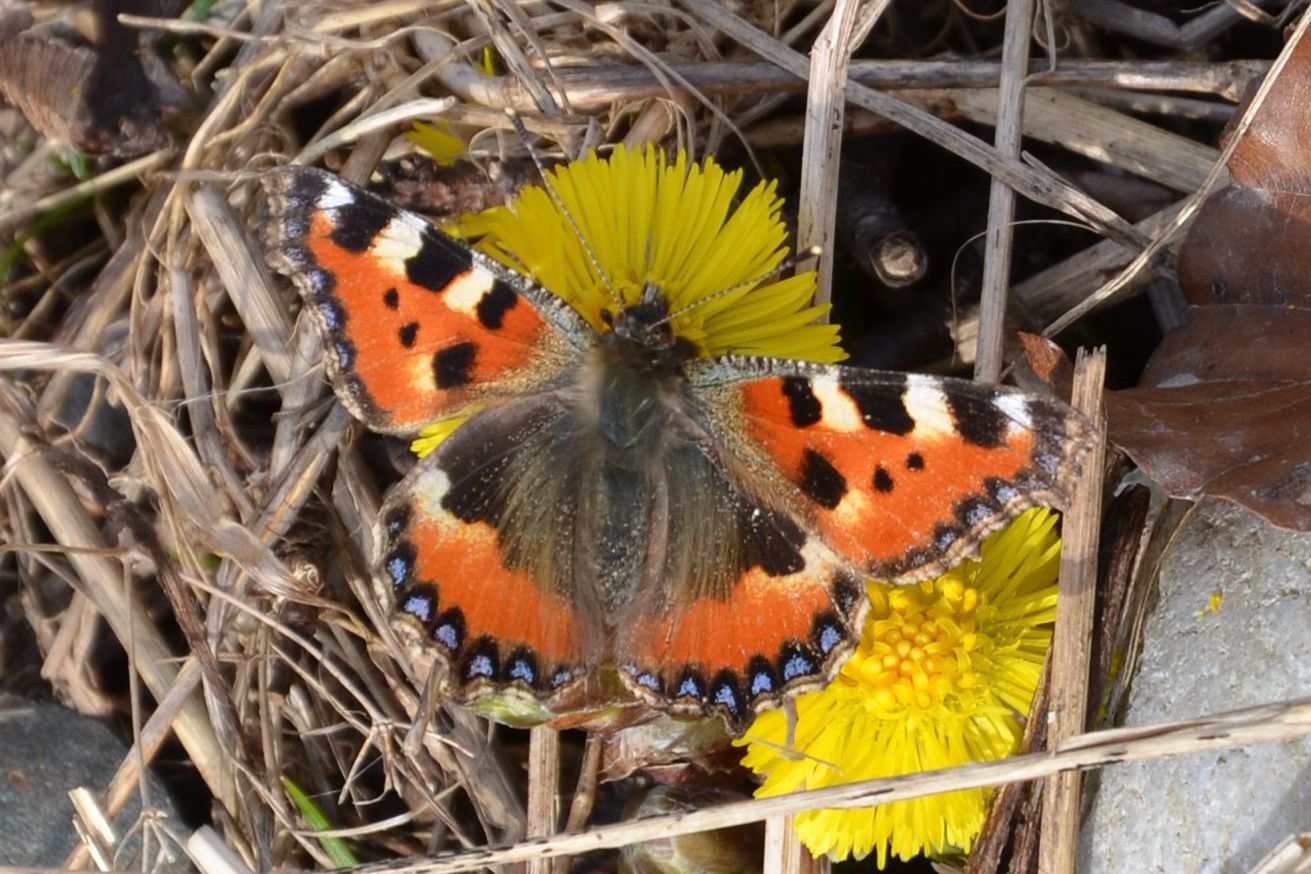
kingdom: Animalia
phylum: Arthropoda
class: Insecta
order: Lepidoptera
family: Nymphalidae
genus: Aglais
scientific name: Aglais urticae
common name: Small tortoiseshell
